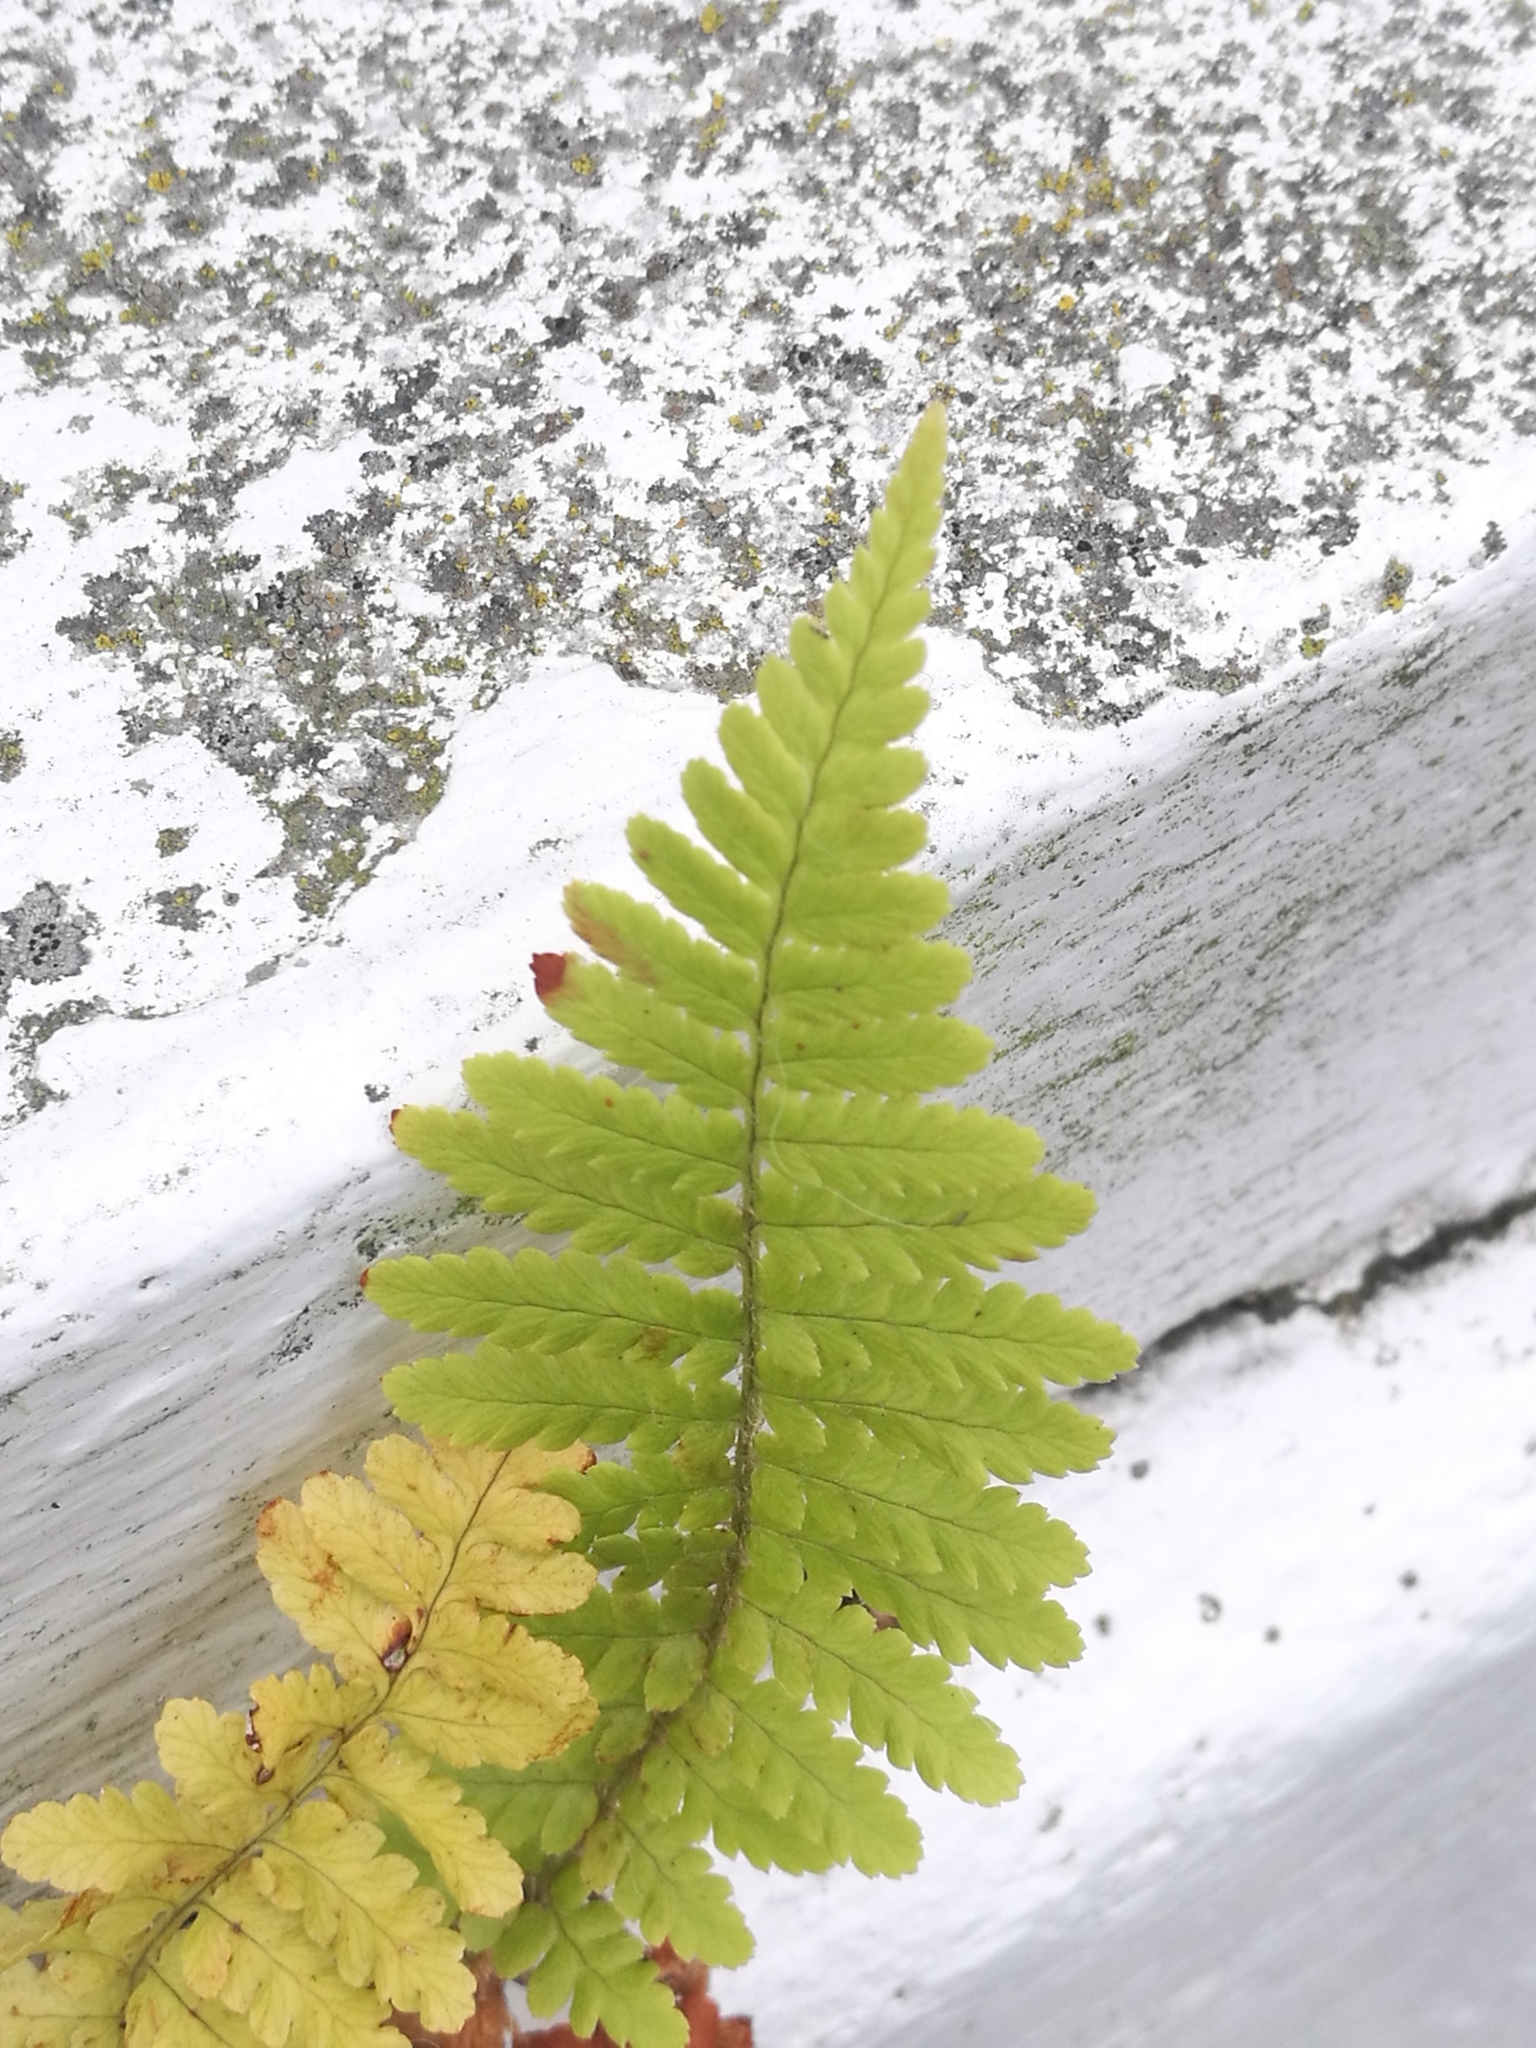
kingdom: Plantae
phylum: Tracheophyta
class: Polypodiopsida
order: Polypodiales
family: Dryopteridaceae
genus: Dryopteris
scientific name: Dryopteris filix-mas
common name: Male fern
